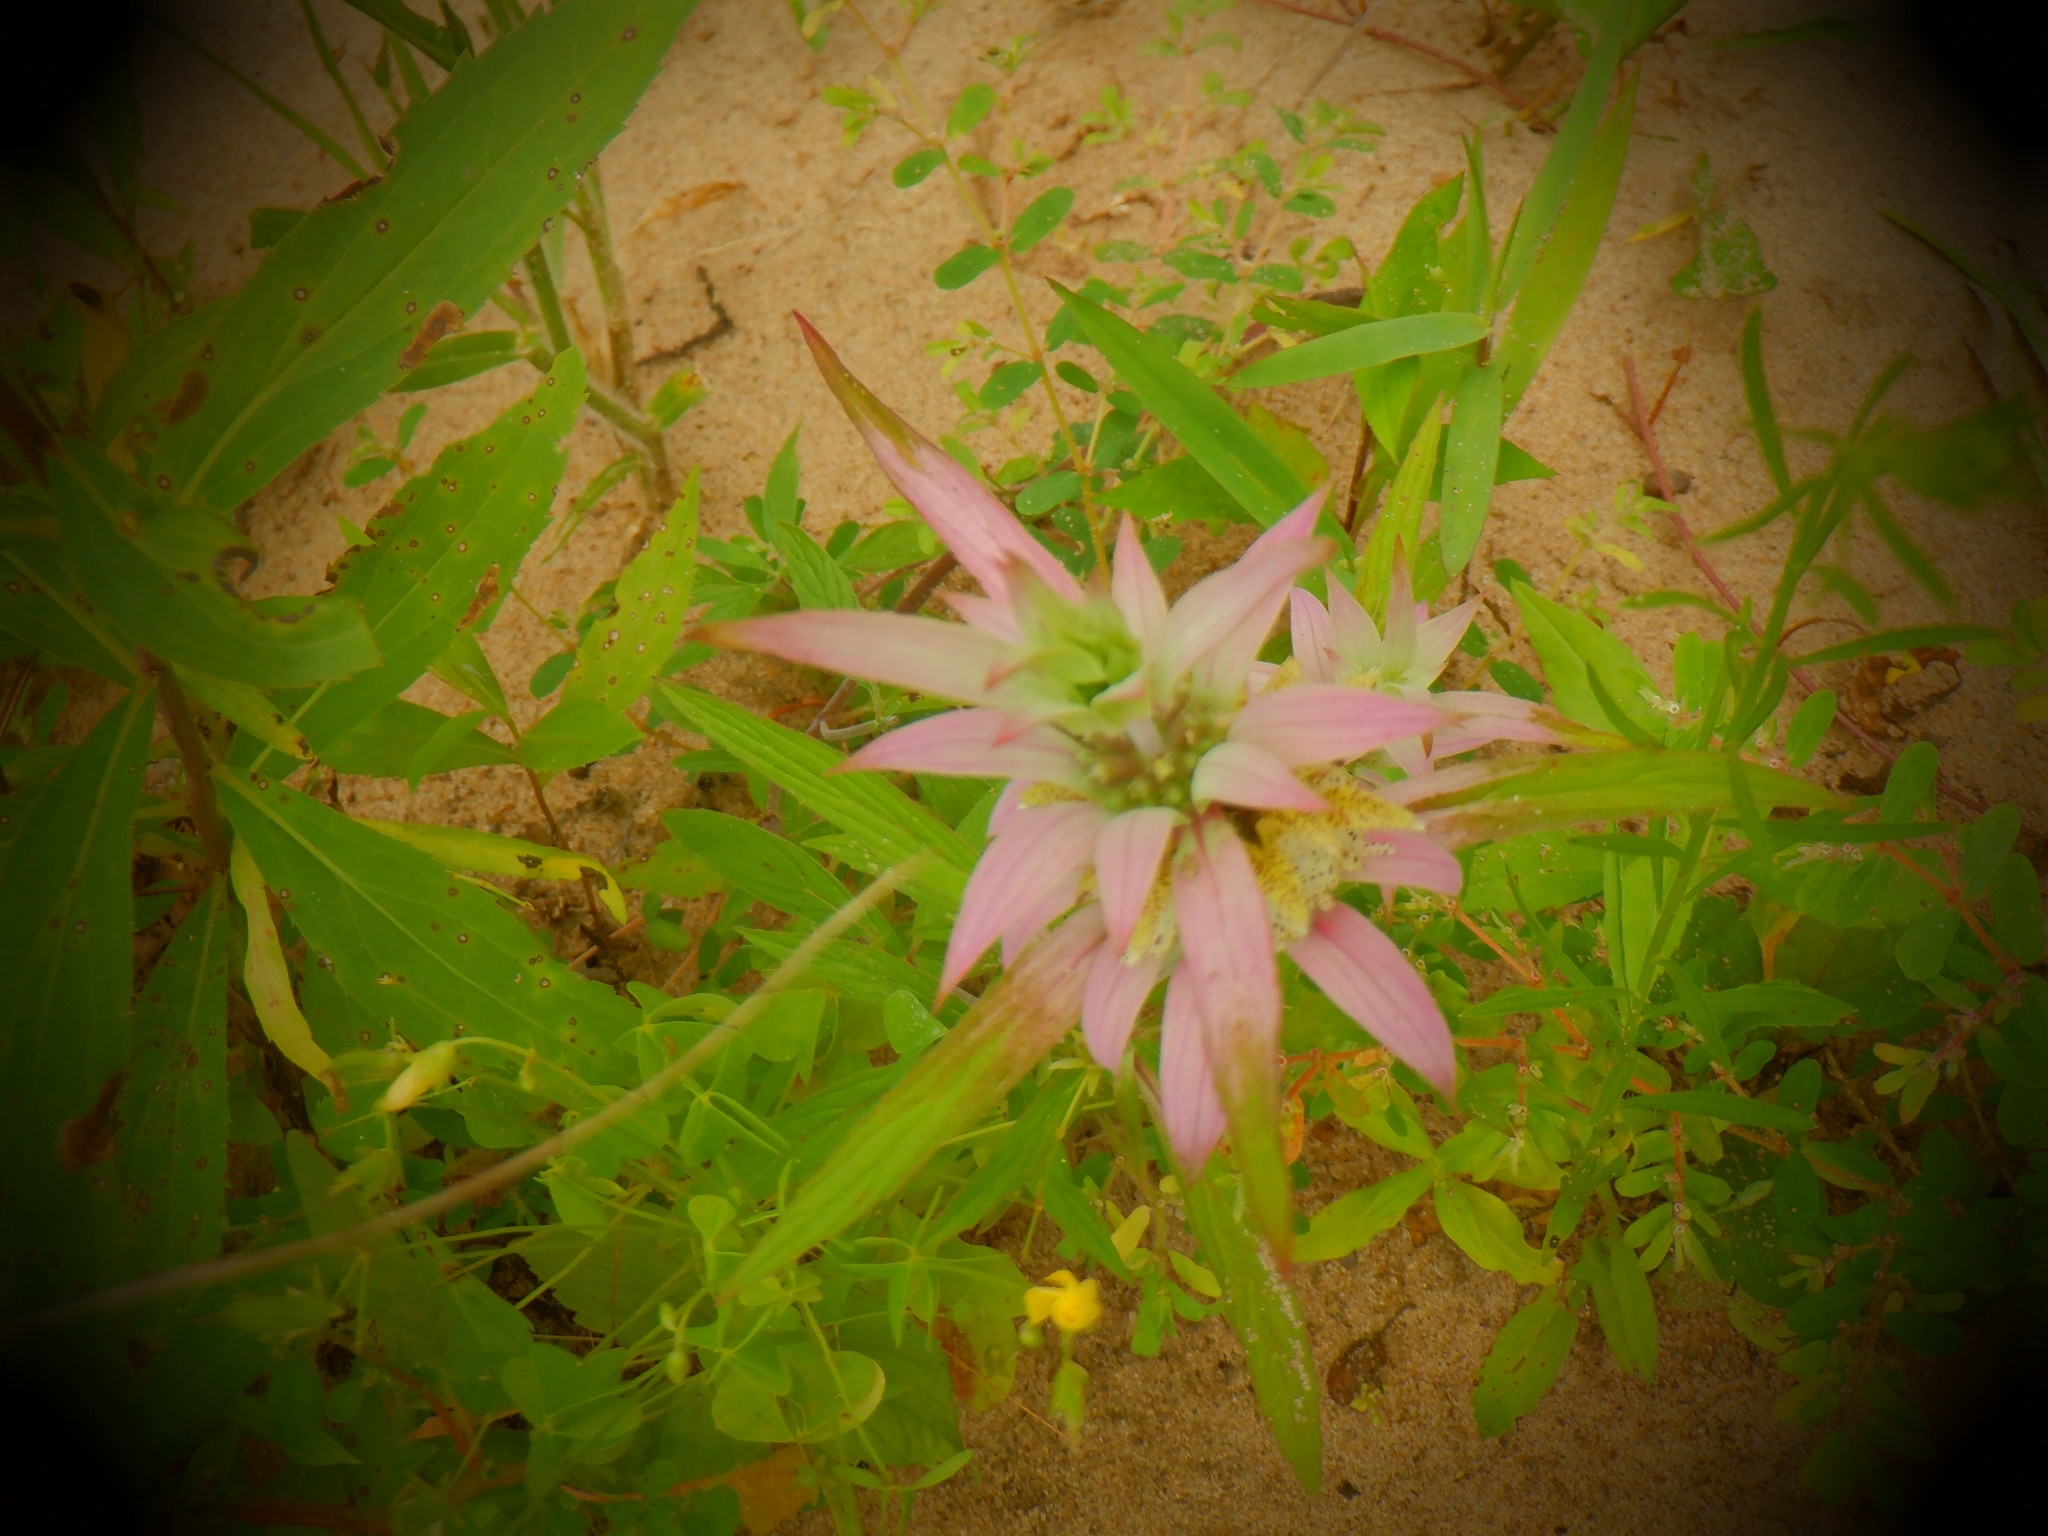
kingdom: Plantae
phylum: Tracheophyta
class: Magnoliopsida
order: Lamiales
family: Lamiaceae
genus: Monarda
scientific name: Monarda punctata
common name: Dotted monarda
